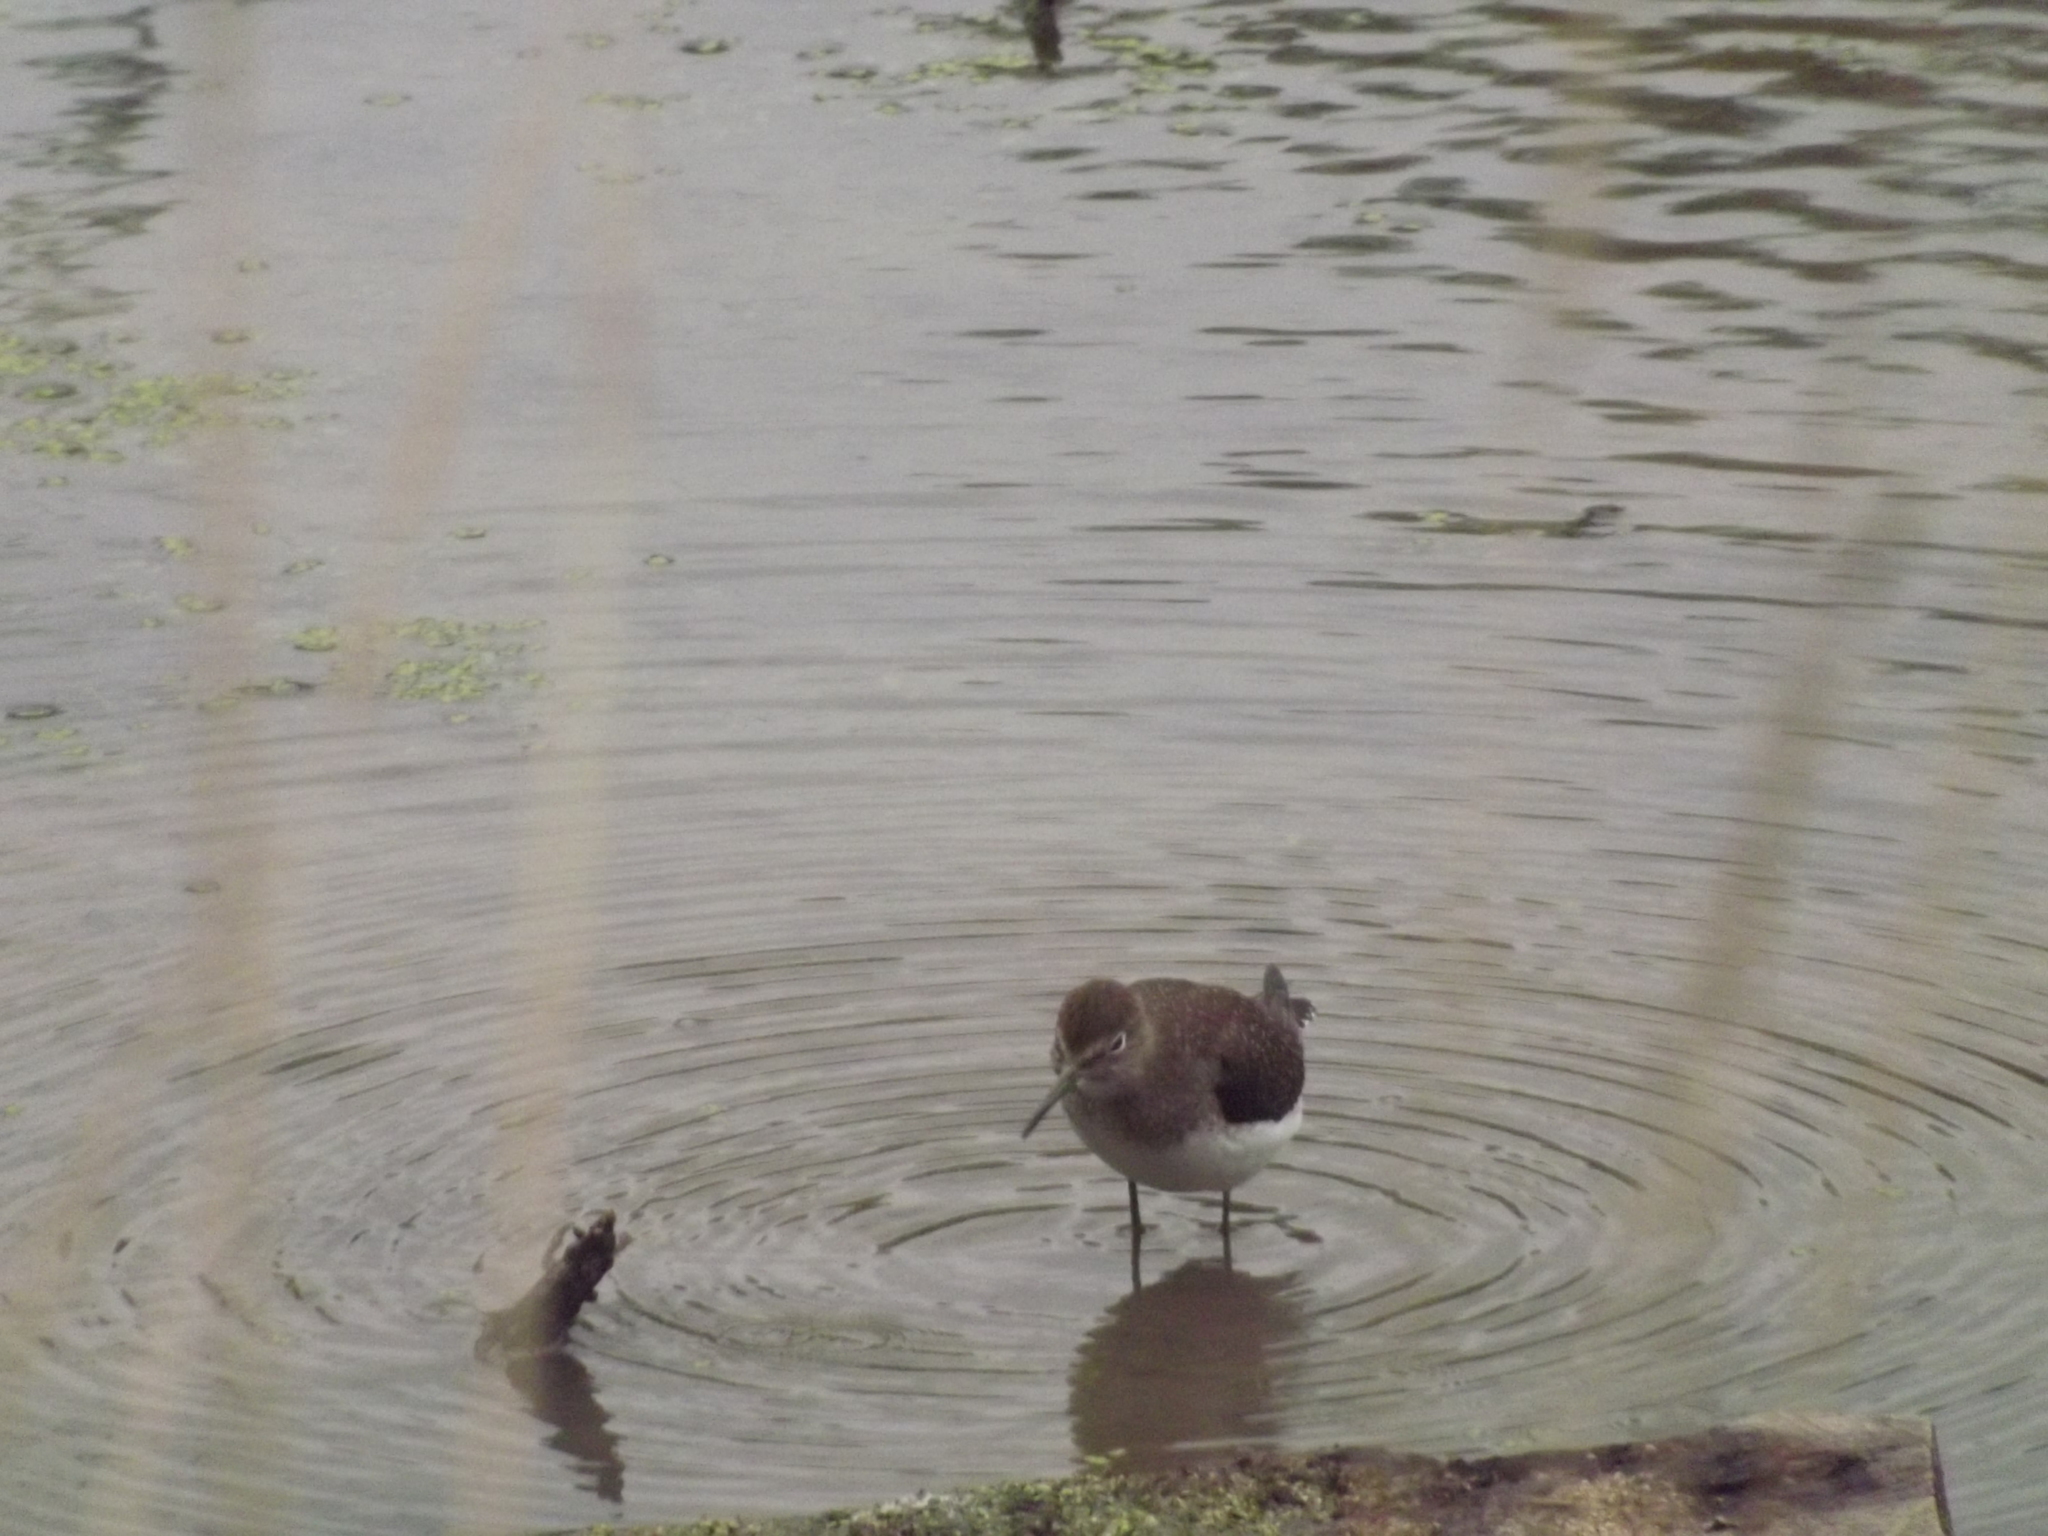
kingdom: Animalia
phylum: Chordata
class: Aves
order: Charadriiformes
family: Scolopacidae
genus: Tringa
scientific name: Tringa solitaria
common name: Solitary sandpiper
